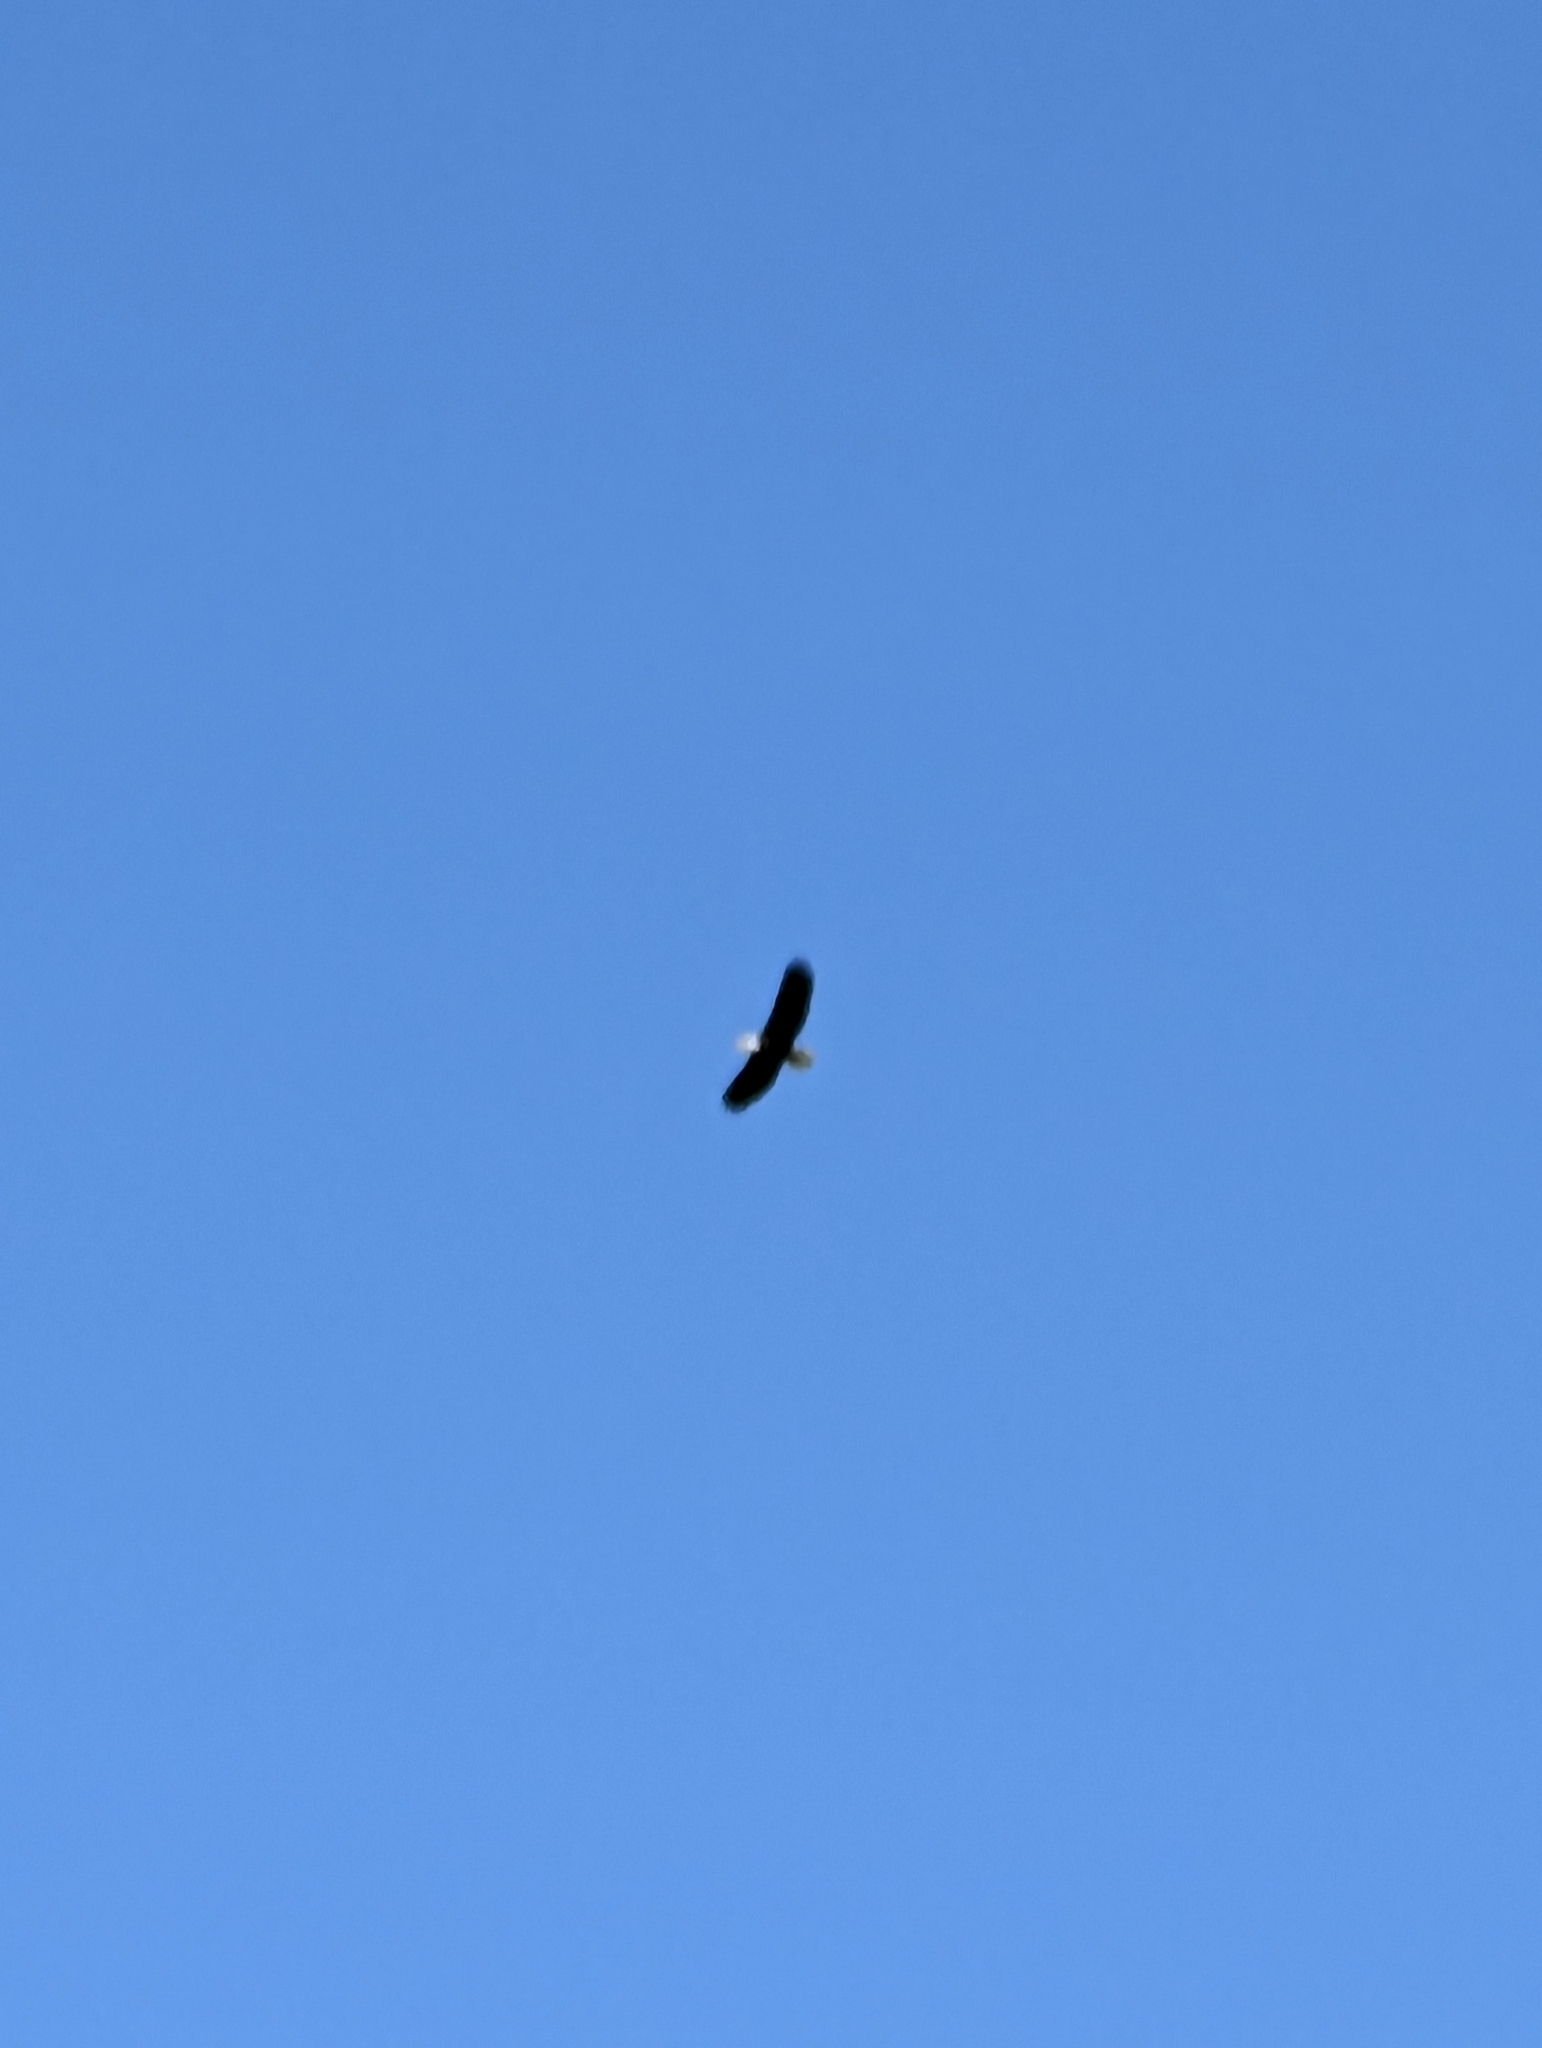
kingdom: Animalia
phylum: Chordata
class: Aves
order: Accipitriformes
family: Accipitridae
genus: Haliaeetus
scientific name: Haliaeetus leucocephalus
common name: Bald eagle
